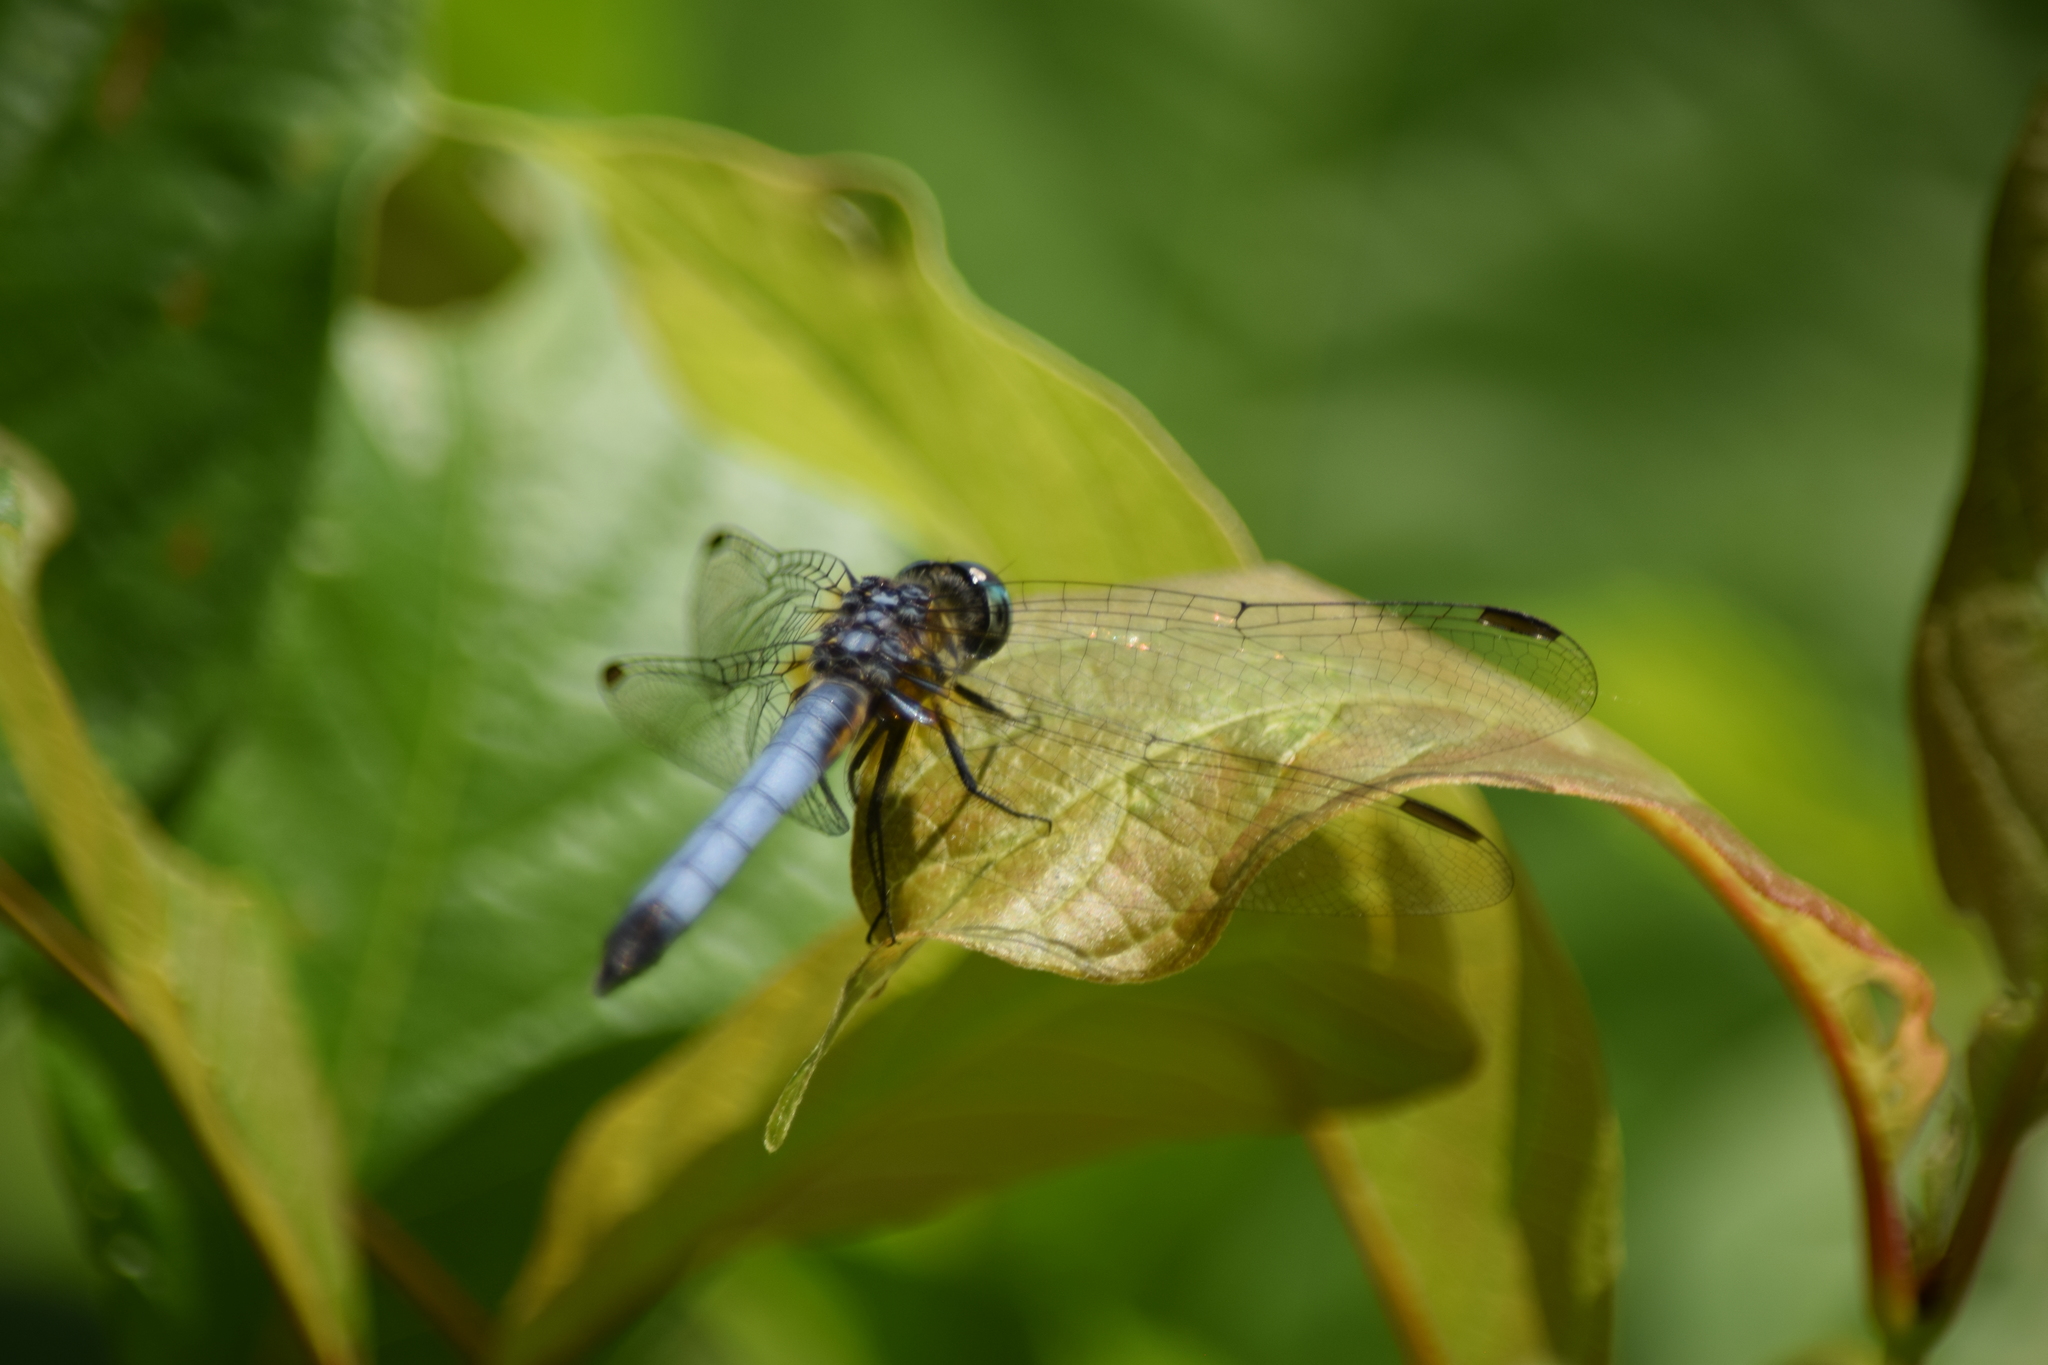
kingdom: Animalia
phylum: Arthropoda
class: Insecta
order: Odonata
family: Libellulidae
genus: Pachydiplax
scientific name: Pachydiplax longipennis
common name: Blue dasher
